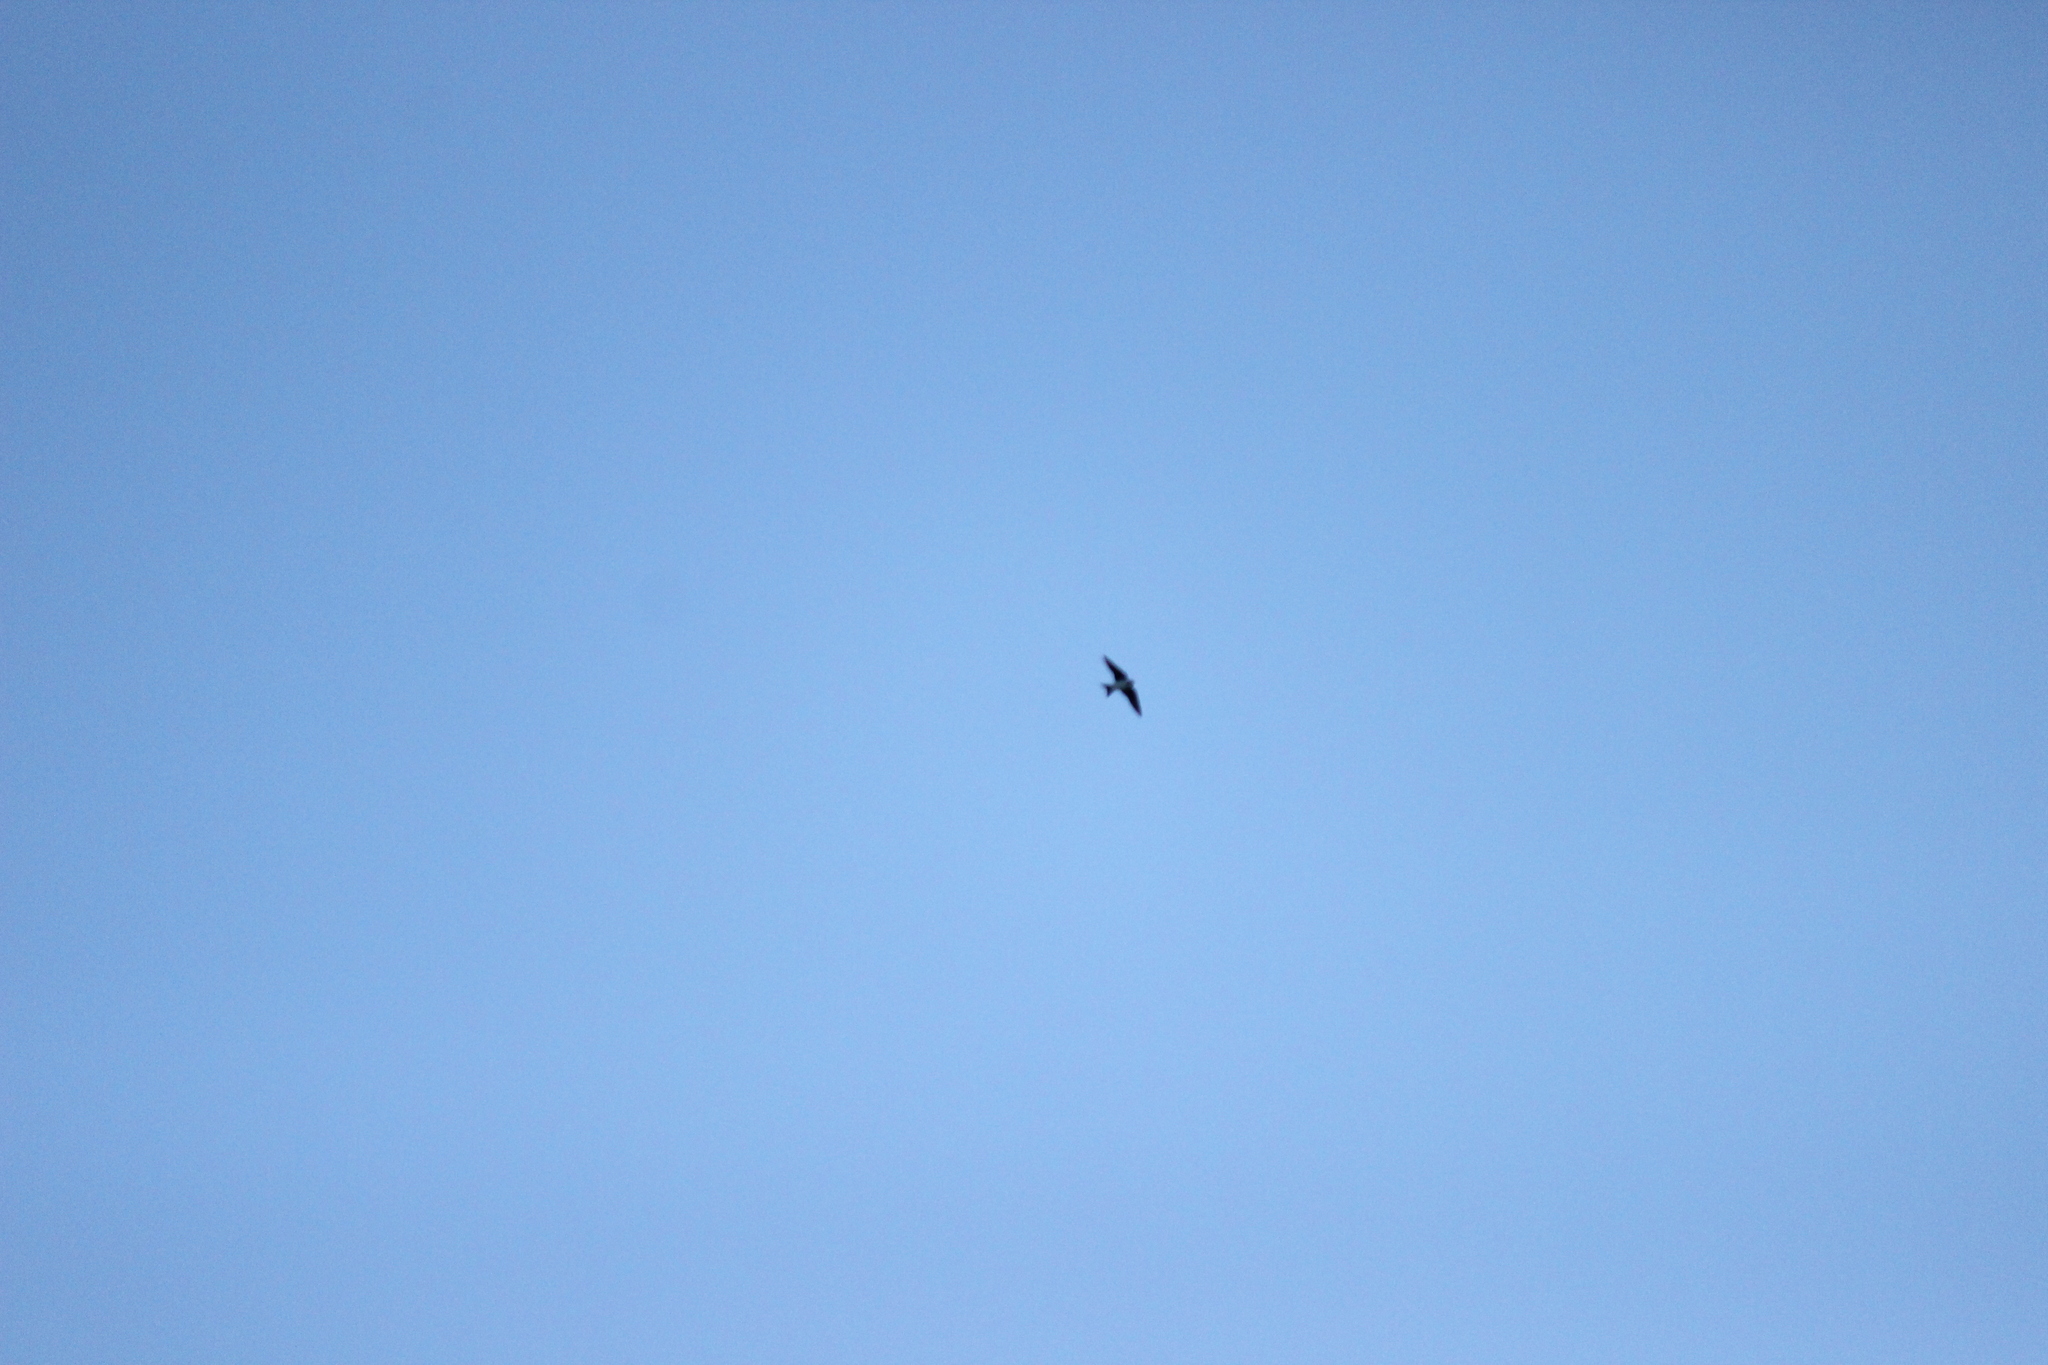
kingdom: Animalia
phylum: Chordata
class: Aves
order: Passeriformes
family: Hirundinidae
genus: Delichon
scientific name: Delichon urbicum
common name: Common house martin
